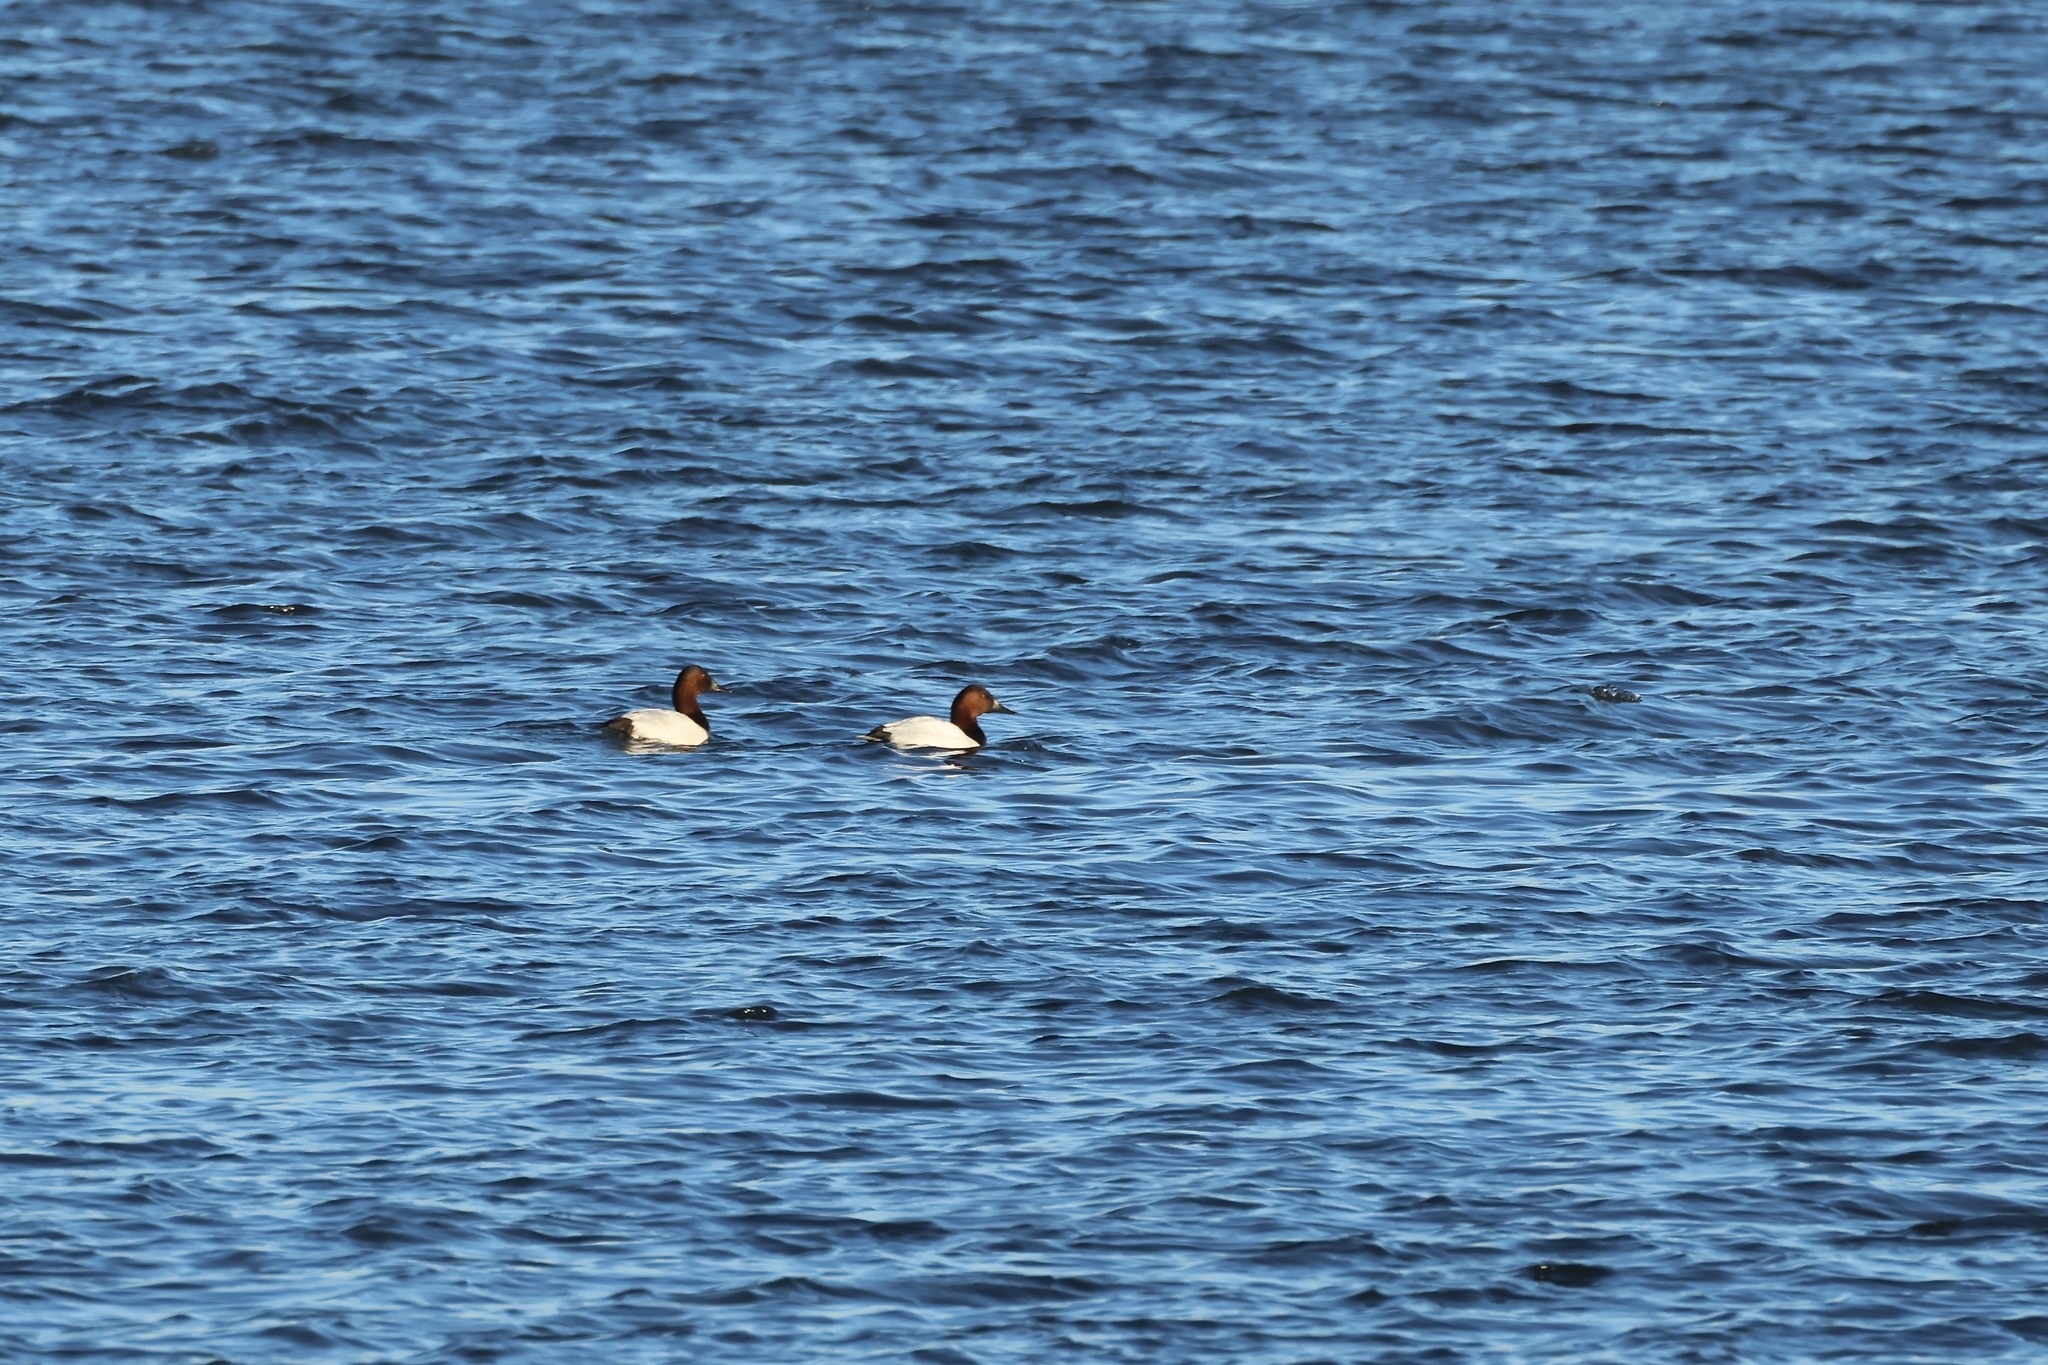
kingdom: Animalia
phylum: Chordata
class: Aves
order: Anseriformes
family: Anatidae
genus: Aythya
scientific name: Aythya valisineria
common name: Canvasback
